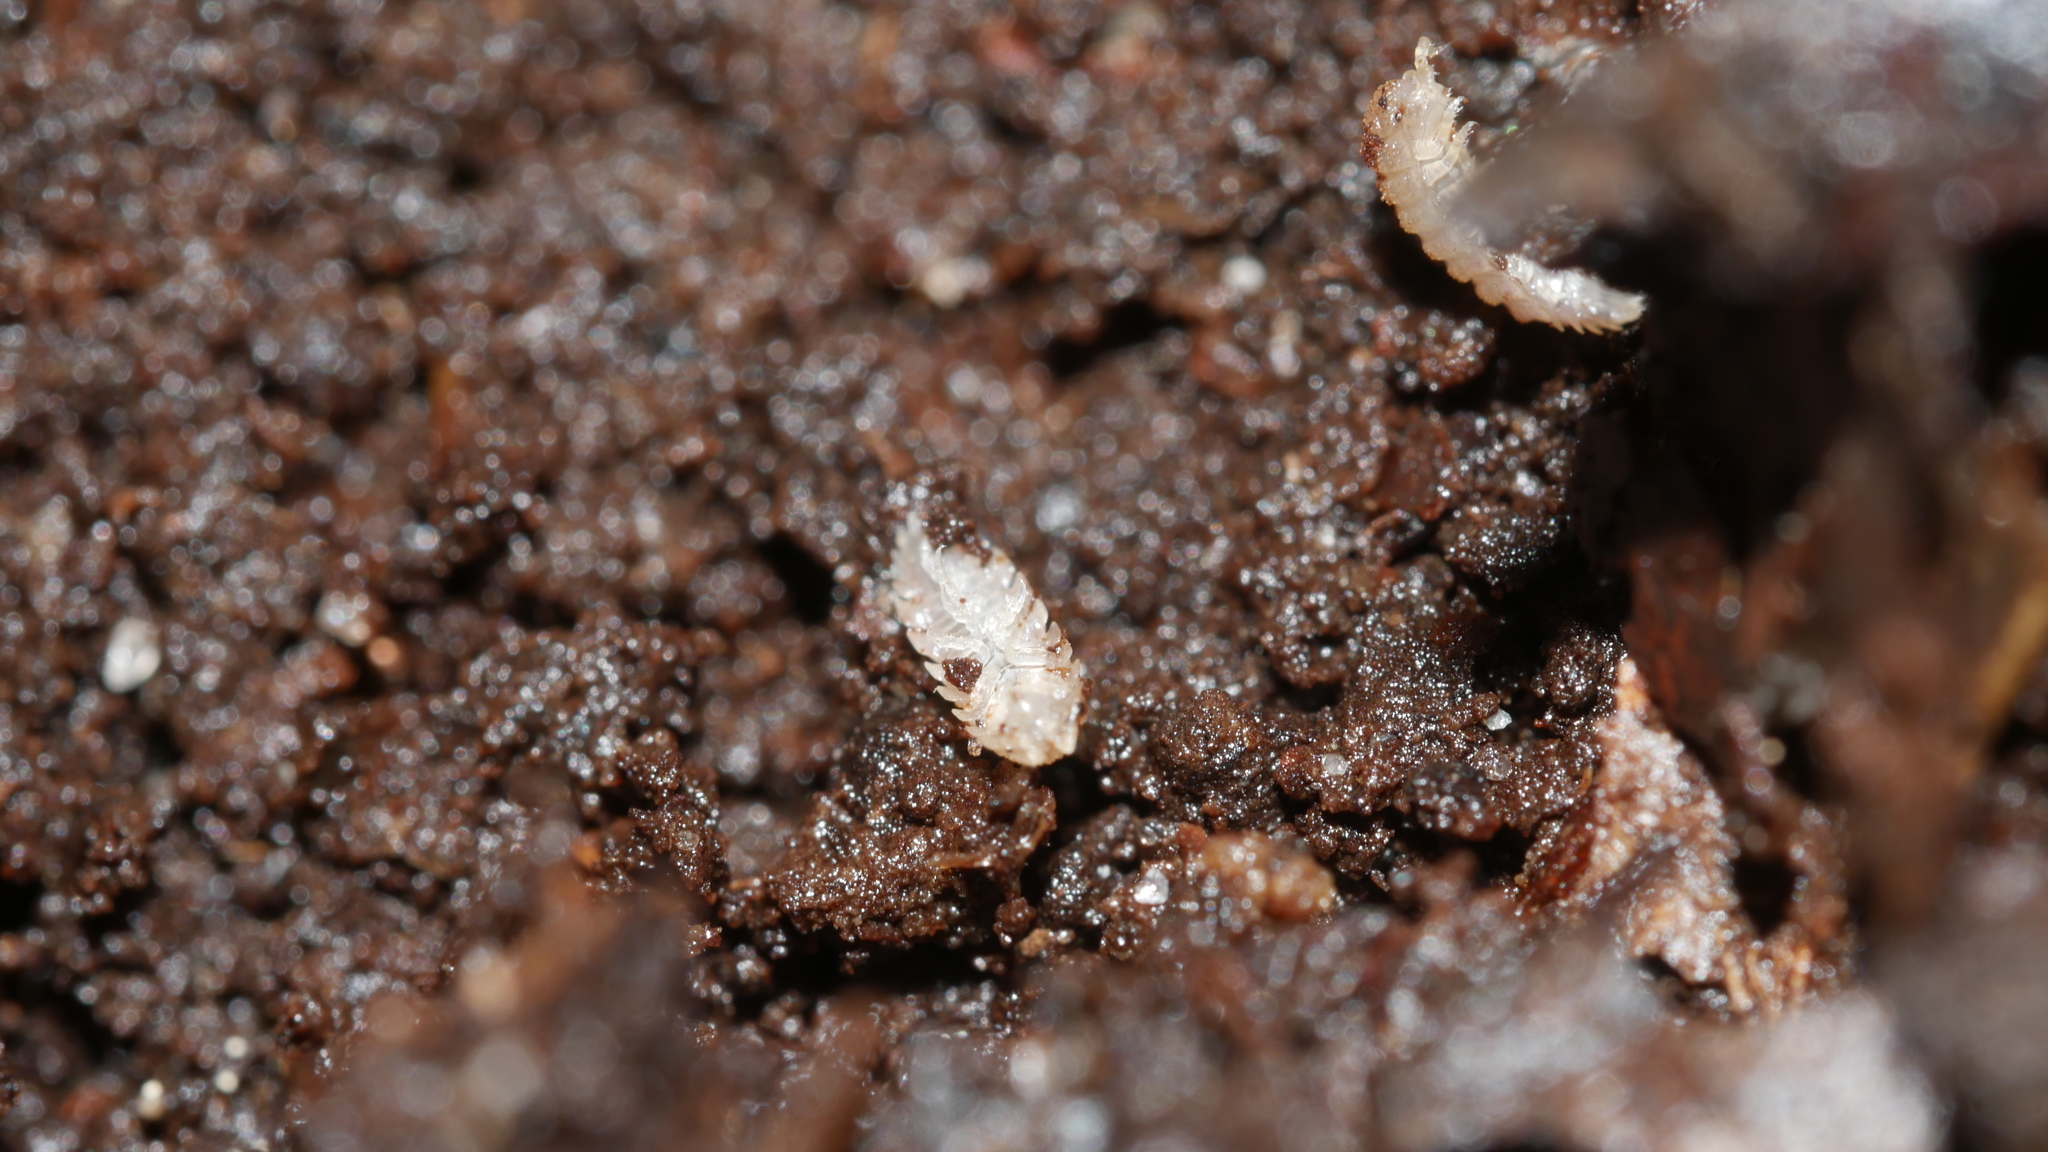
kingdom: Animalia
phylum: Arthropoda
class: Malacostraca
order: Isopoda
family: Trichoniscidae
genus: Haplophthalmus
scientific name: Haplophthalmus danicus
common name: Pillbug
